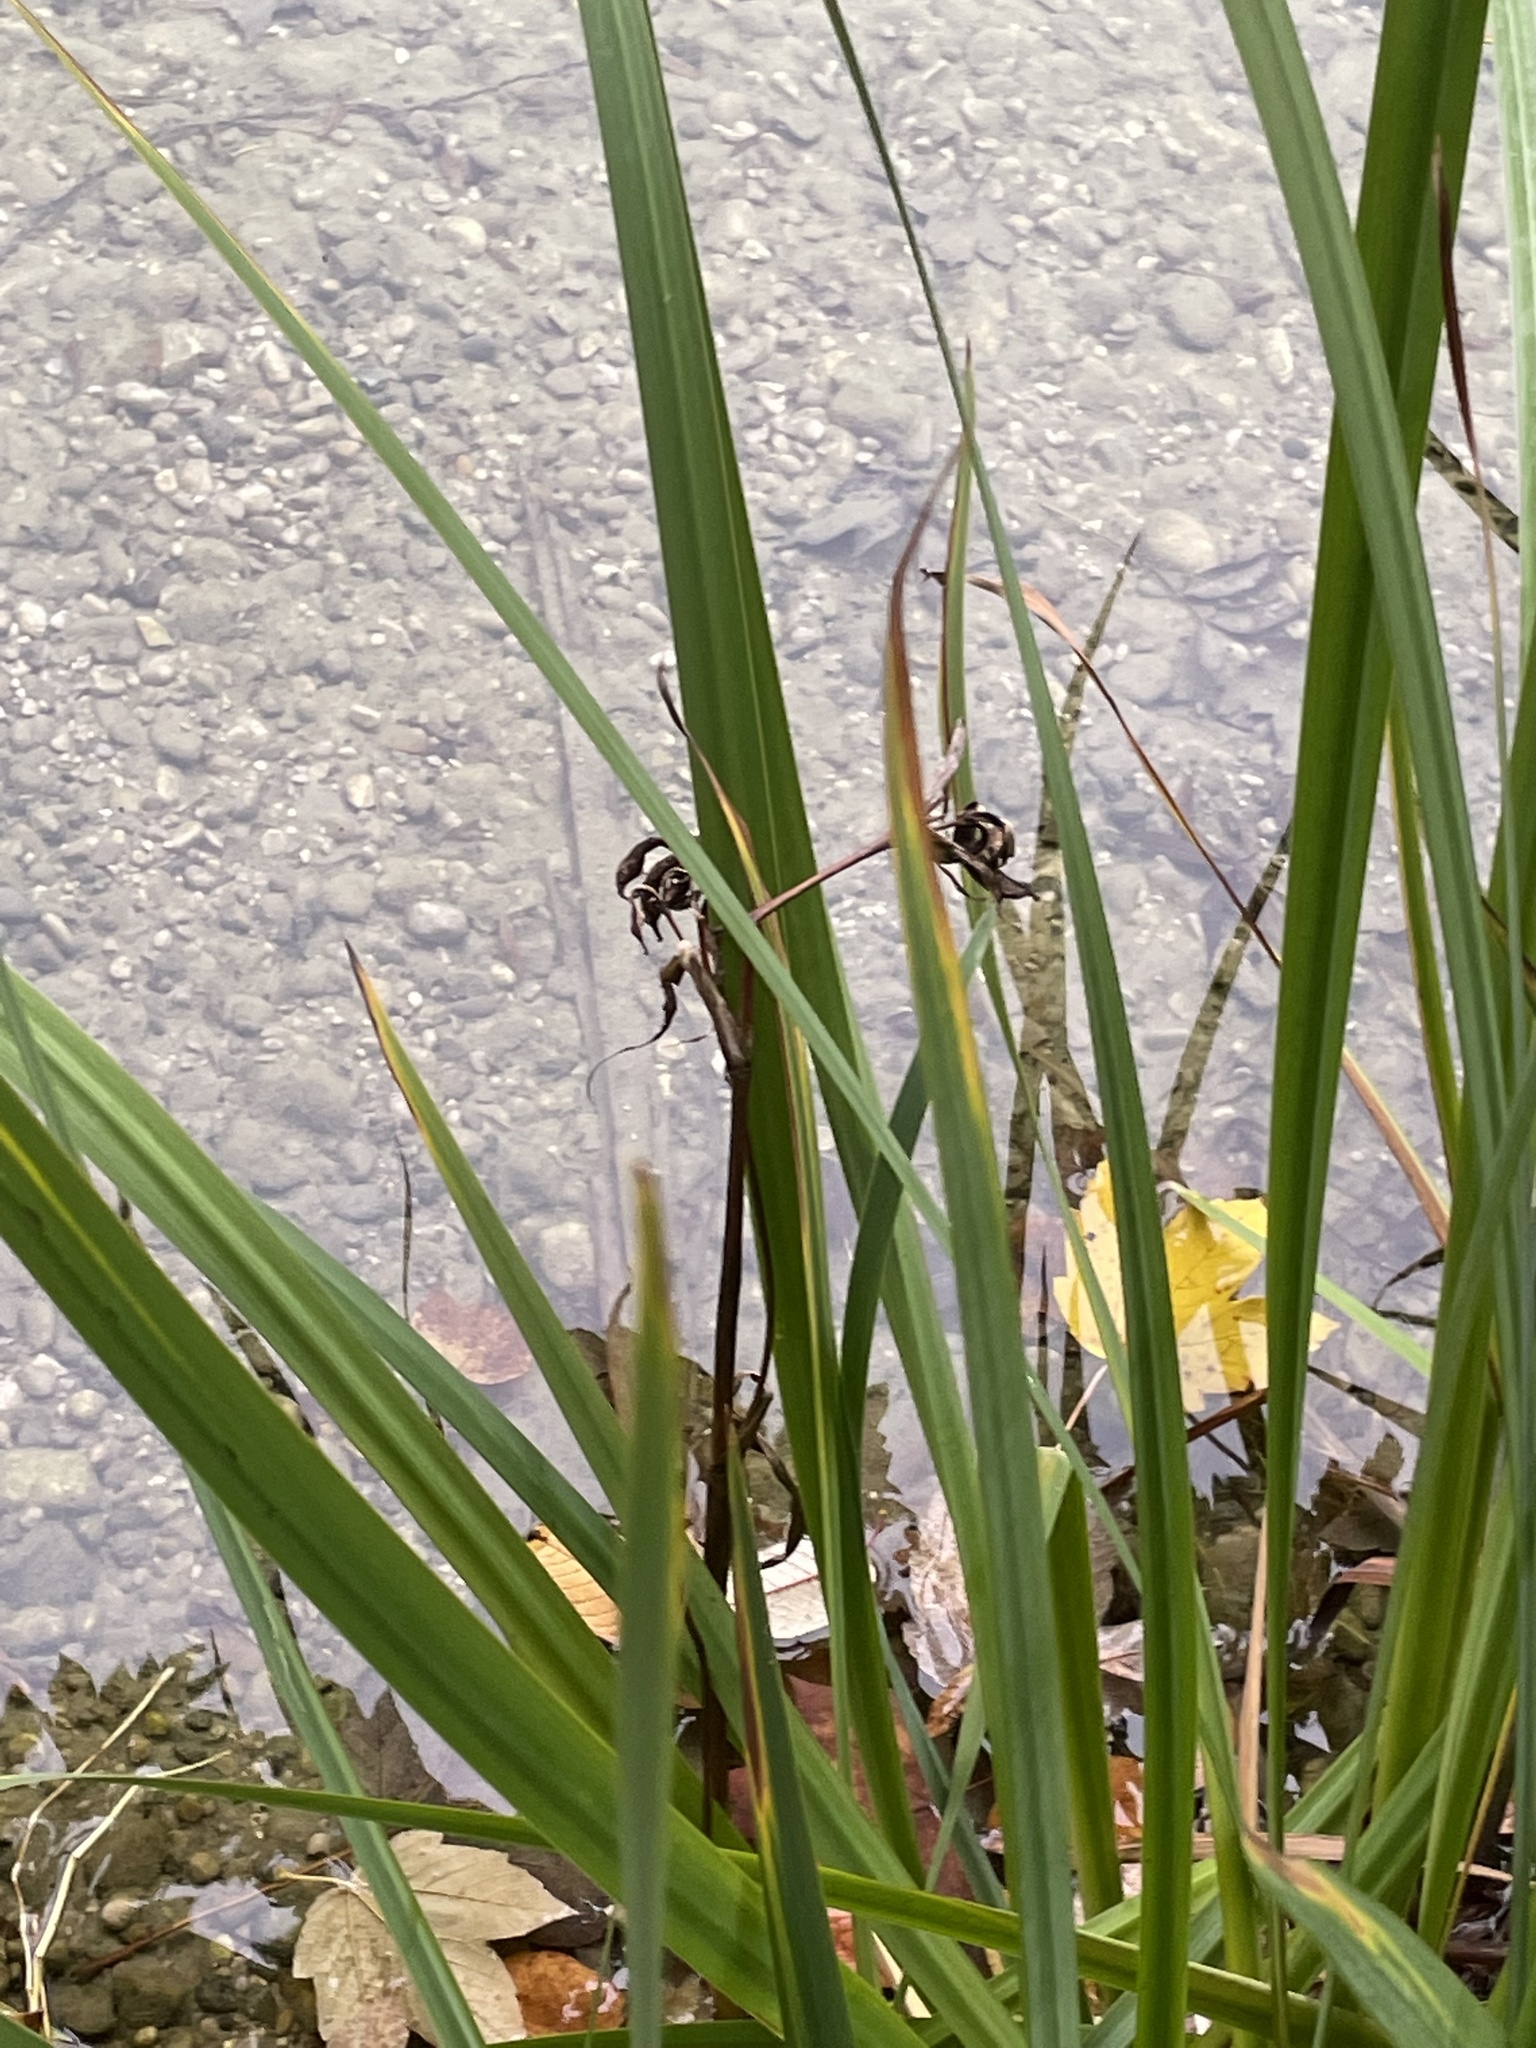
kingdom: Plantae
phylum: Tracheophyta
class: Liliopsida
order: Asparagales
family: Iridaceae
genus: Iris
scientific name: Iris pseudacorus
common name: Yellow flag
